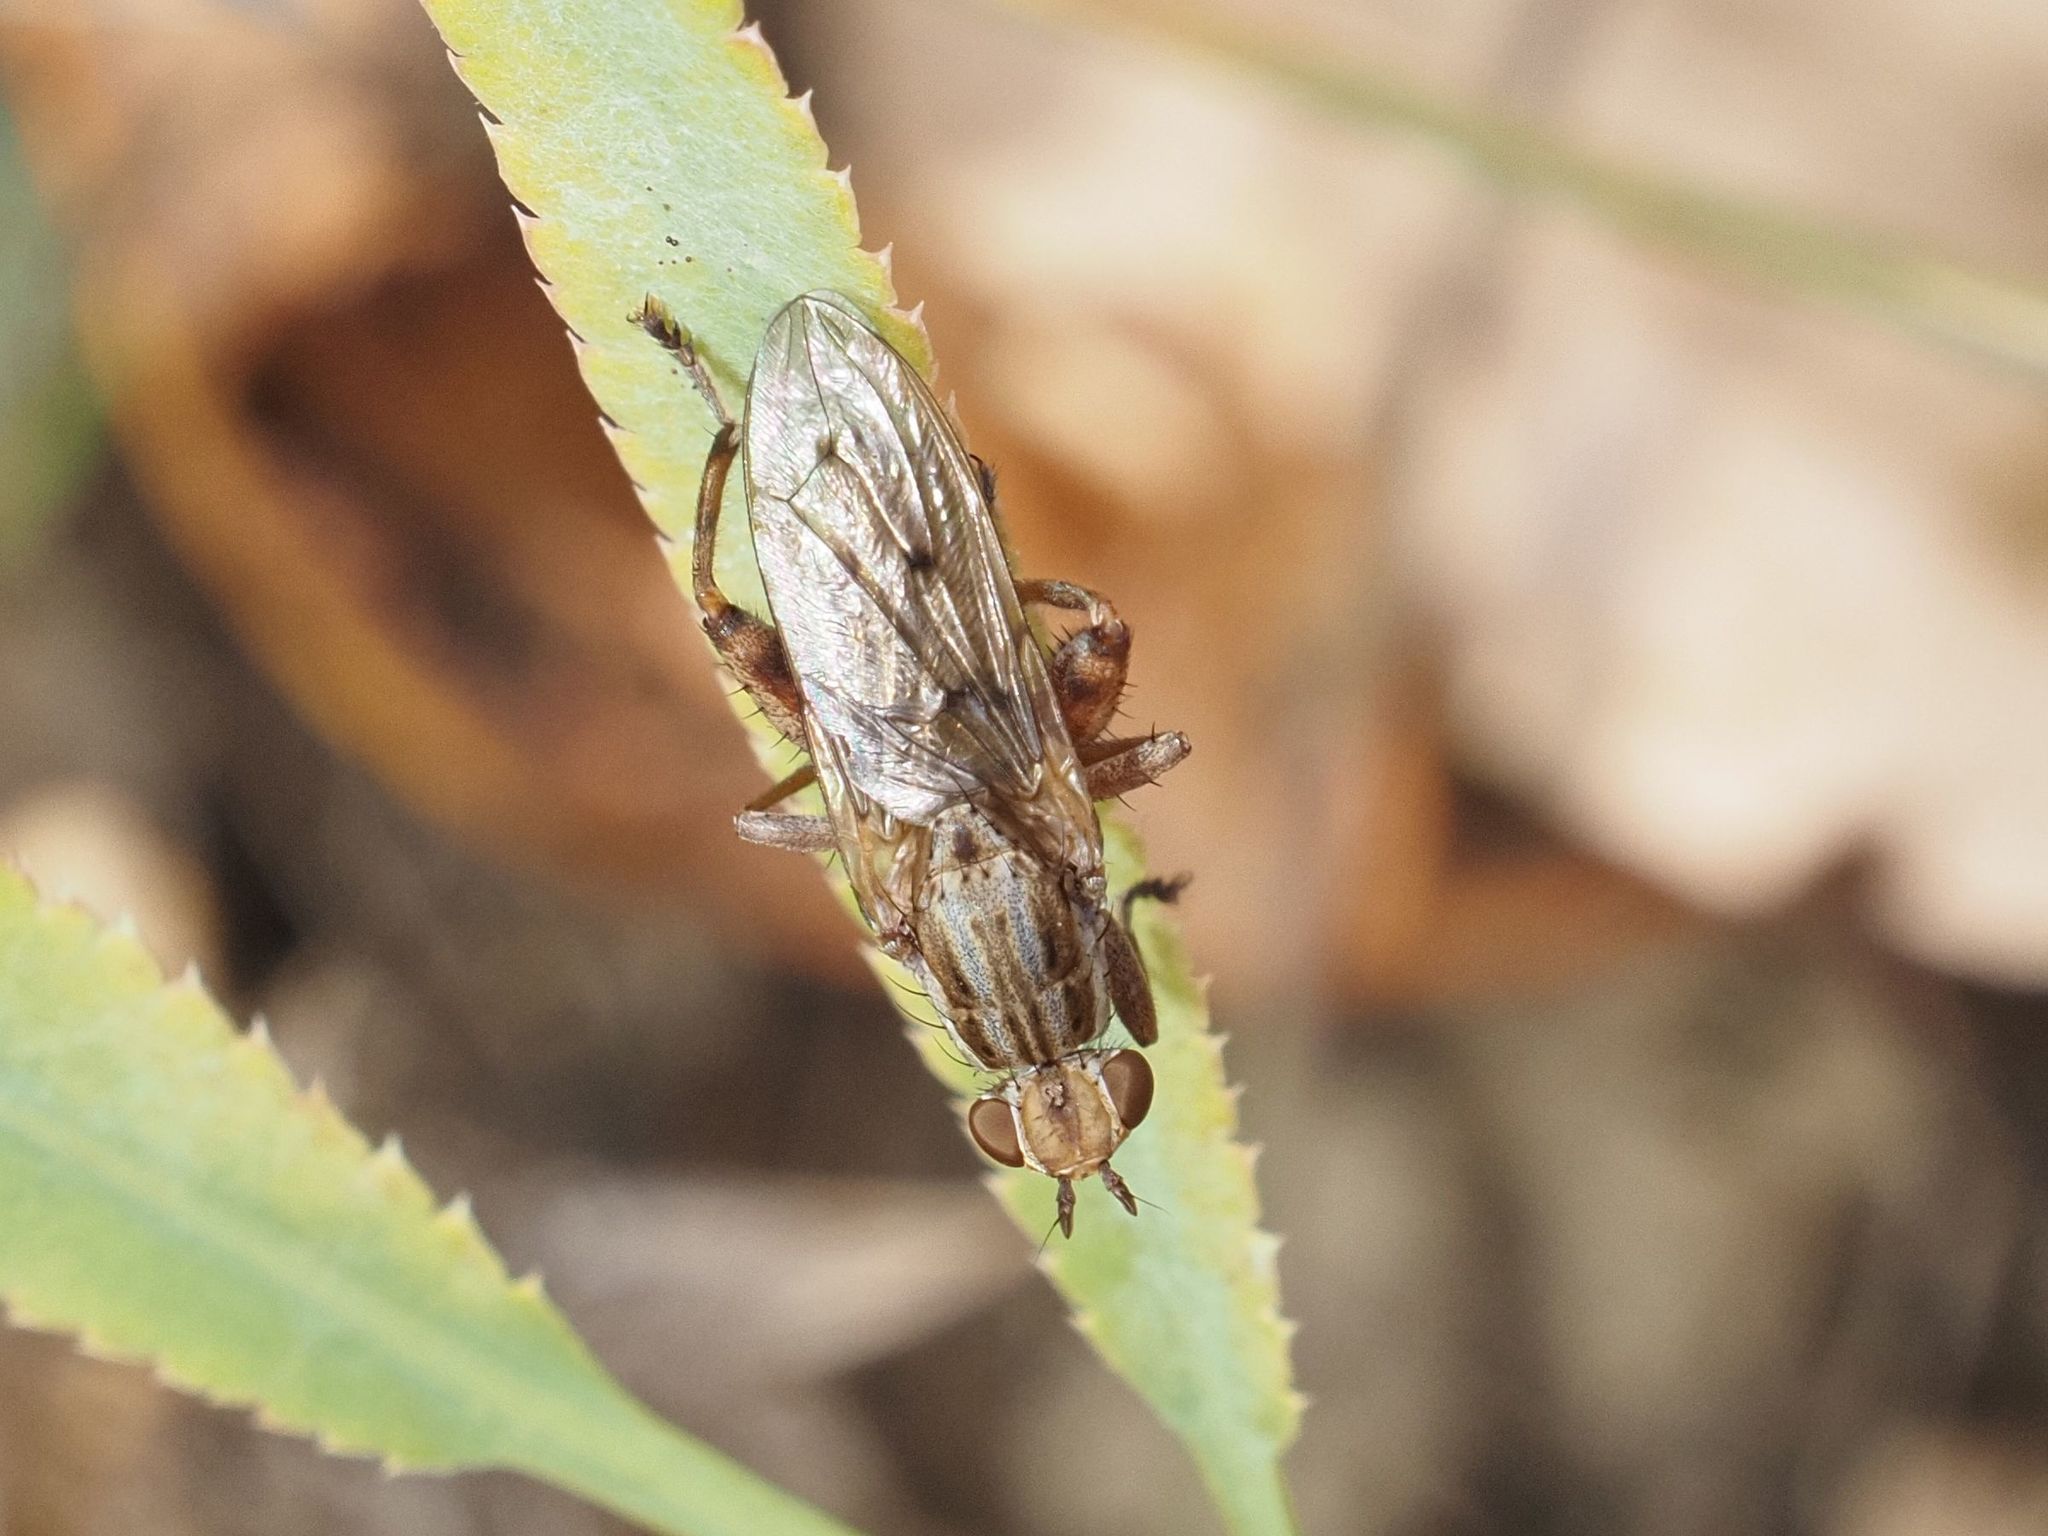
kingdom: Animalia
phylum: Arthropoda
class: Insecta
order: Diptera
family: Sciomyzidae
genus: Salticella
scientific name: Salticella fasciata
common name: Dune snail-killing fly
